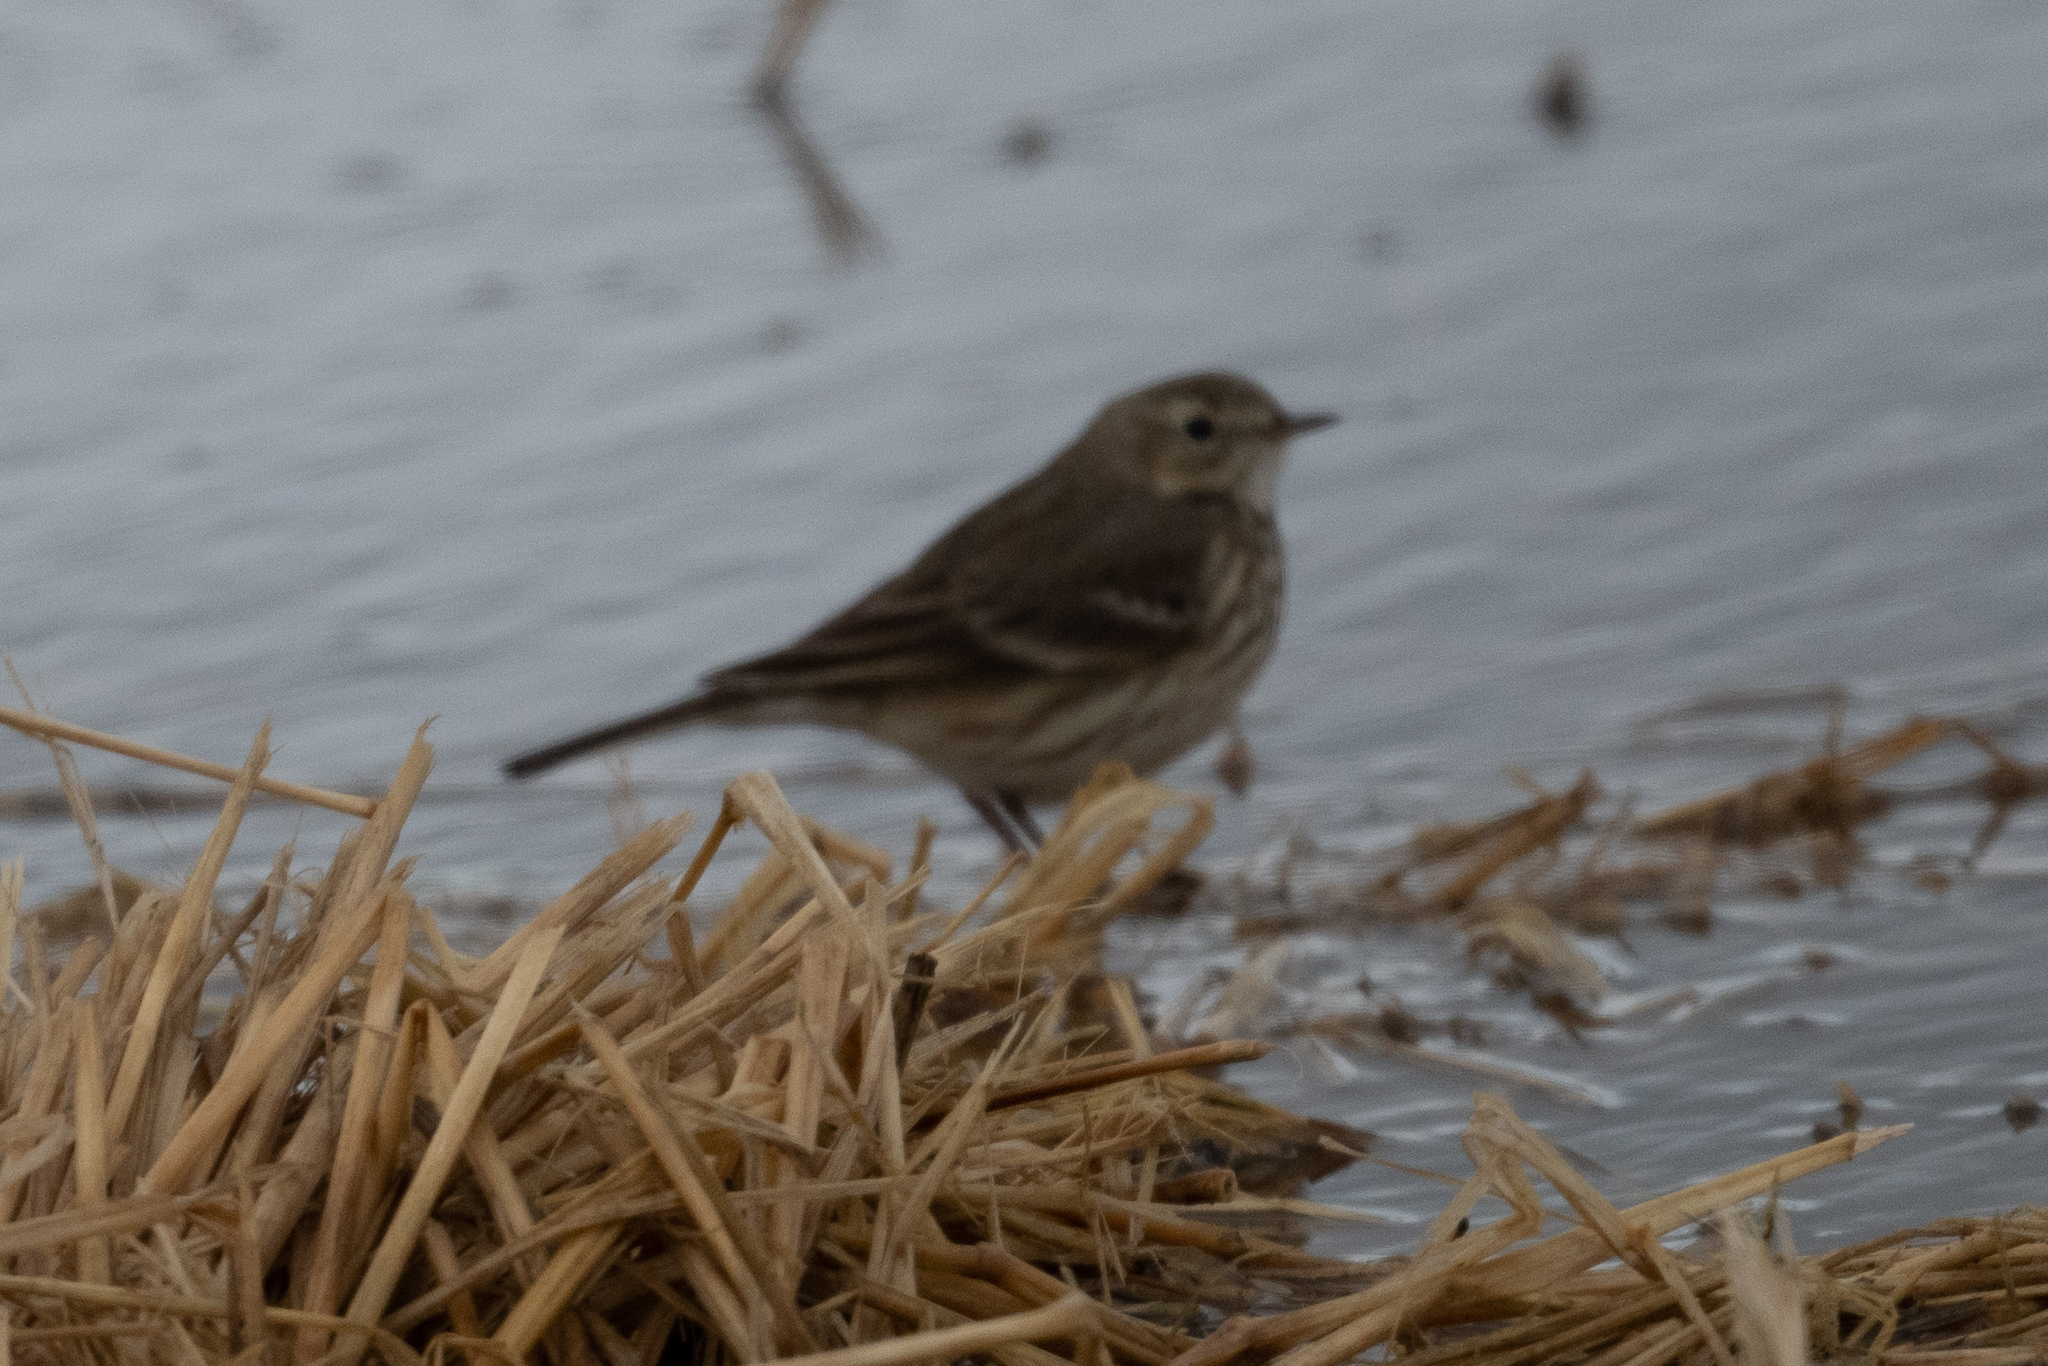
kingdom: Animalia
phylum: Chordata
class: Aves
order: Passeriformes
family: Motacillidae
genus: Anthus
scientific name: Anthus rubescens
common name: Buff-bellied pipit
